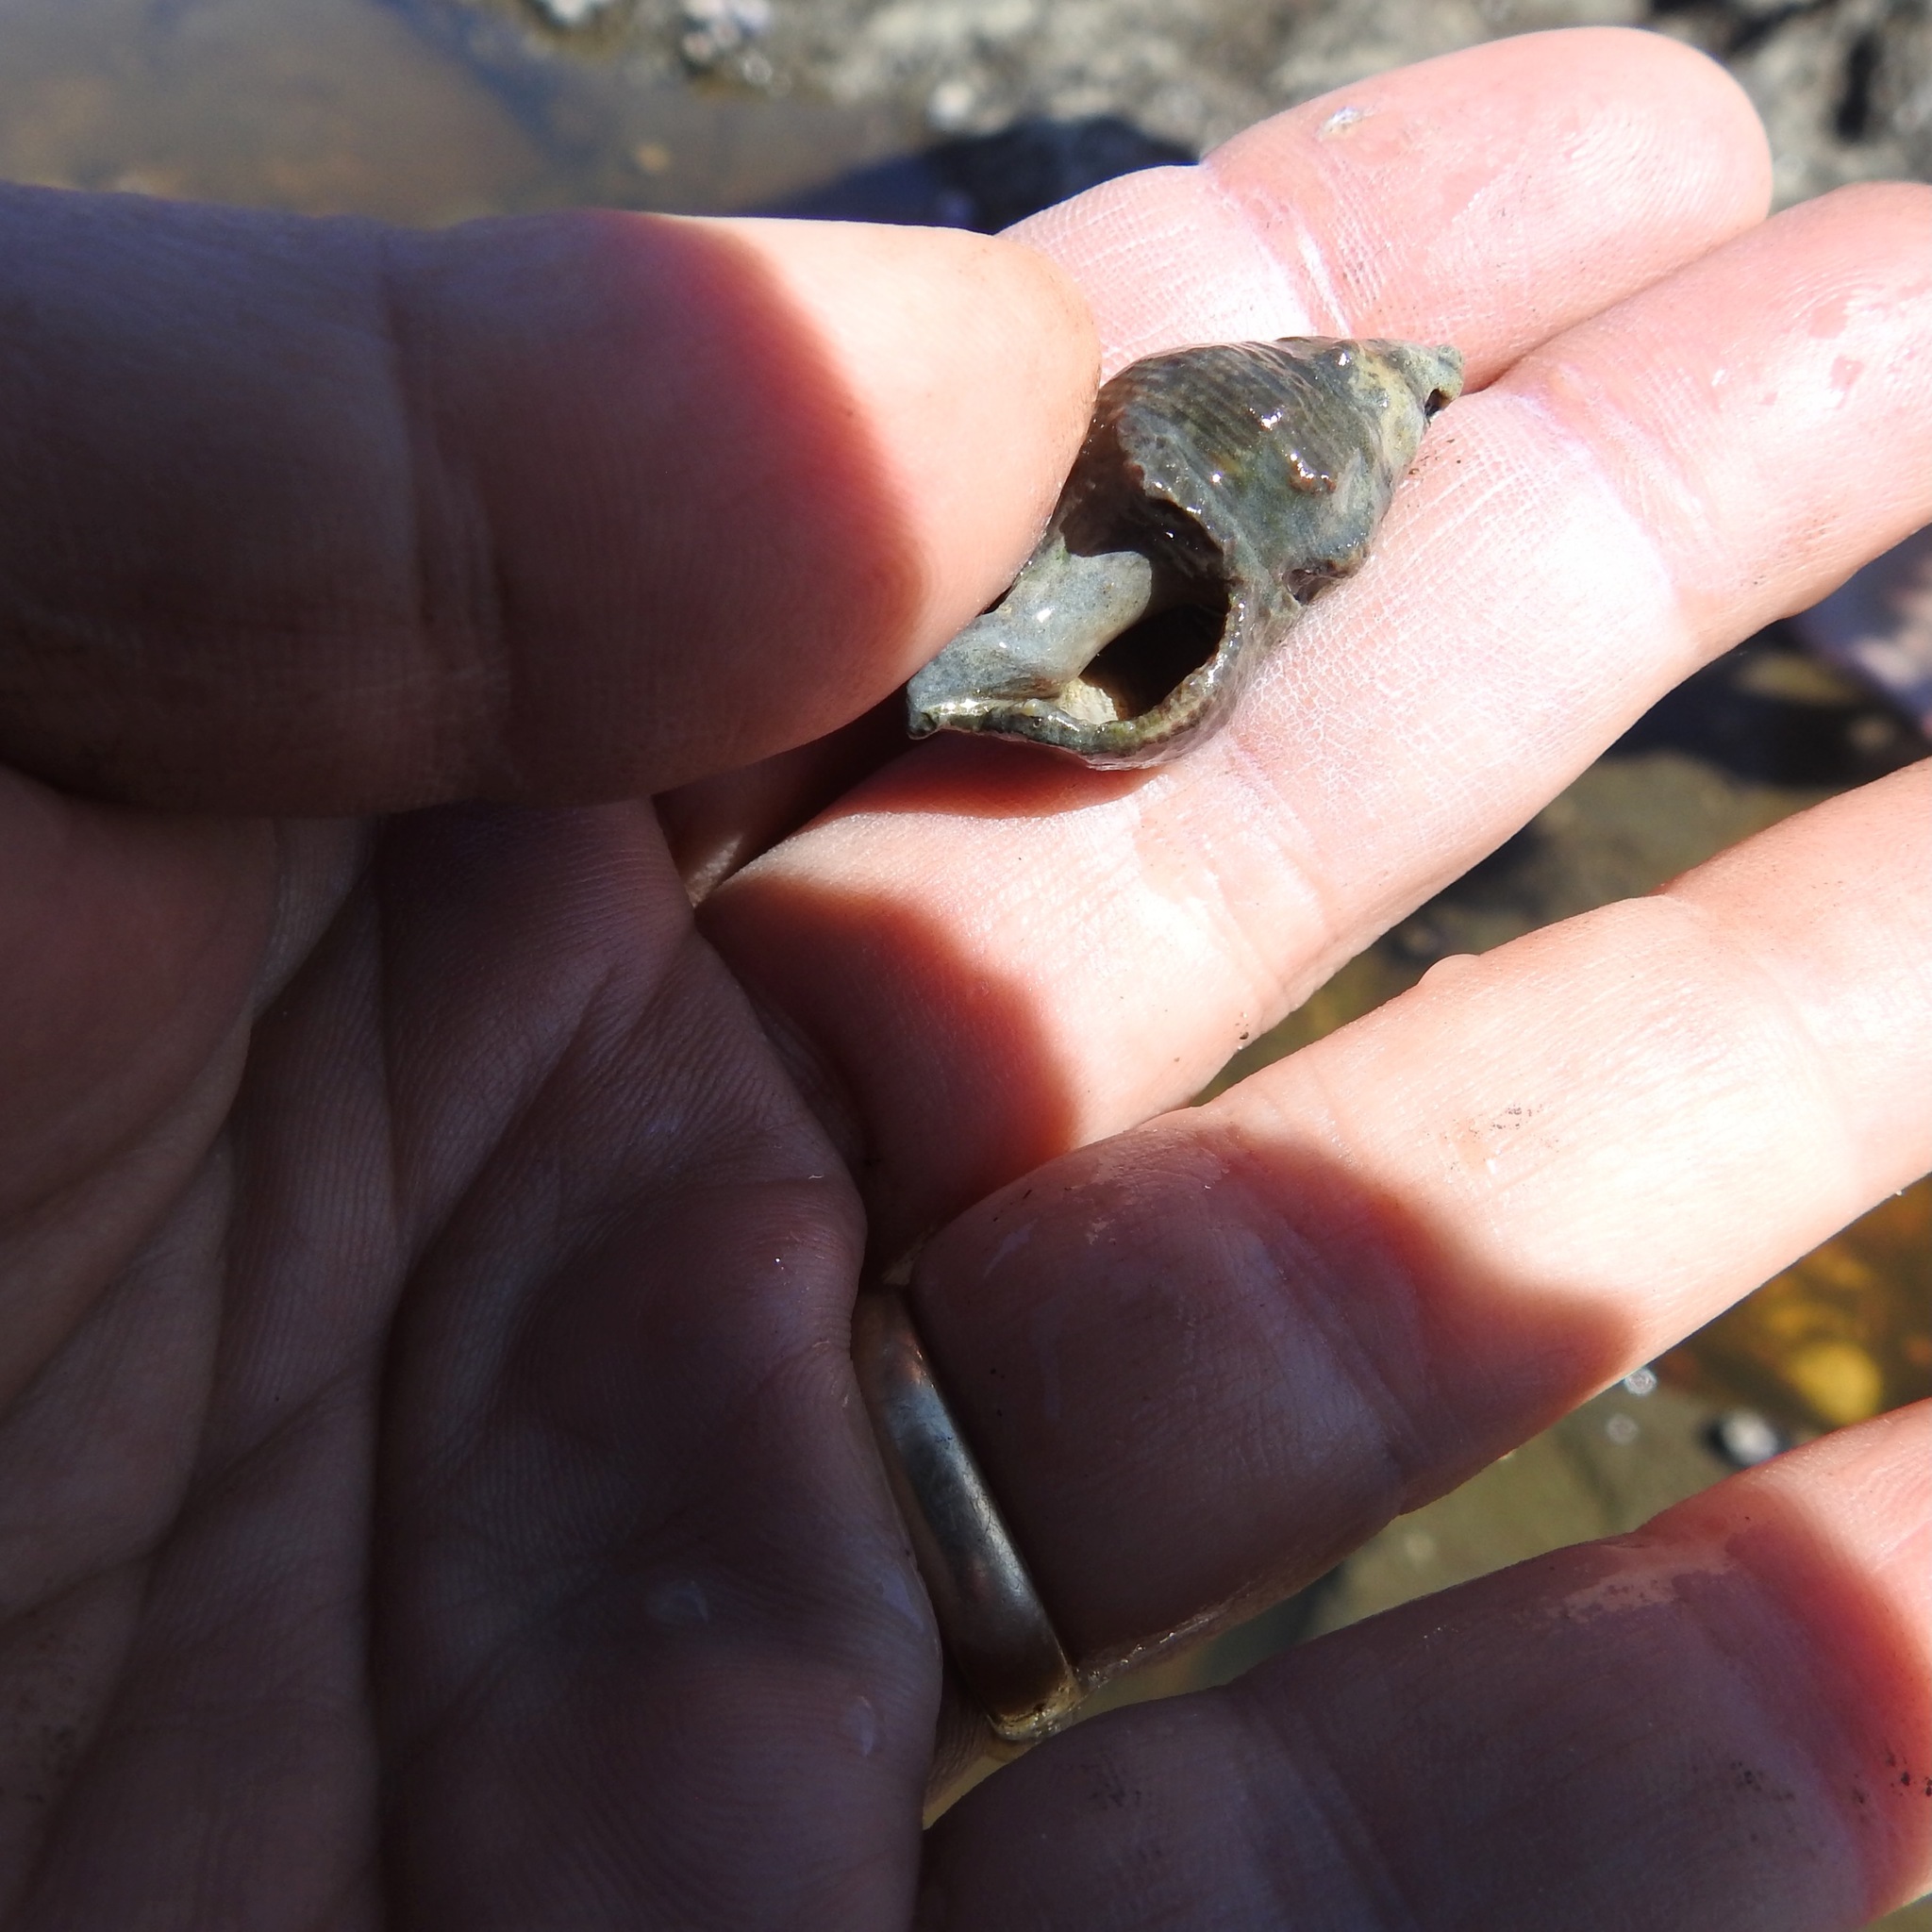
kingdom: Animalia
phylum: Mollusca
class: Gastropoda
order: Neogastropoda
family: Tudiclidae
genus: Lirabuccinum
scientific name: Lirabuccinum dirum
